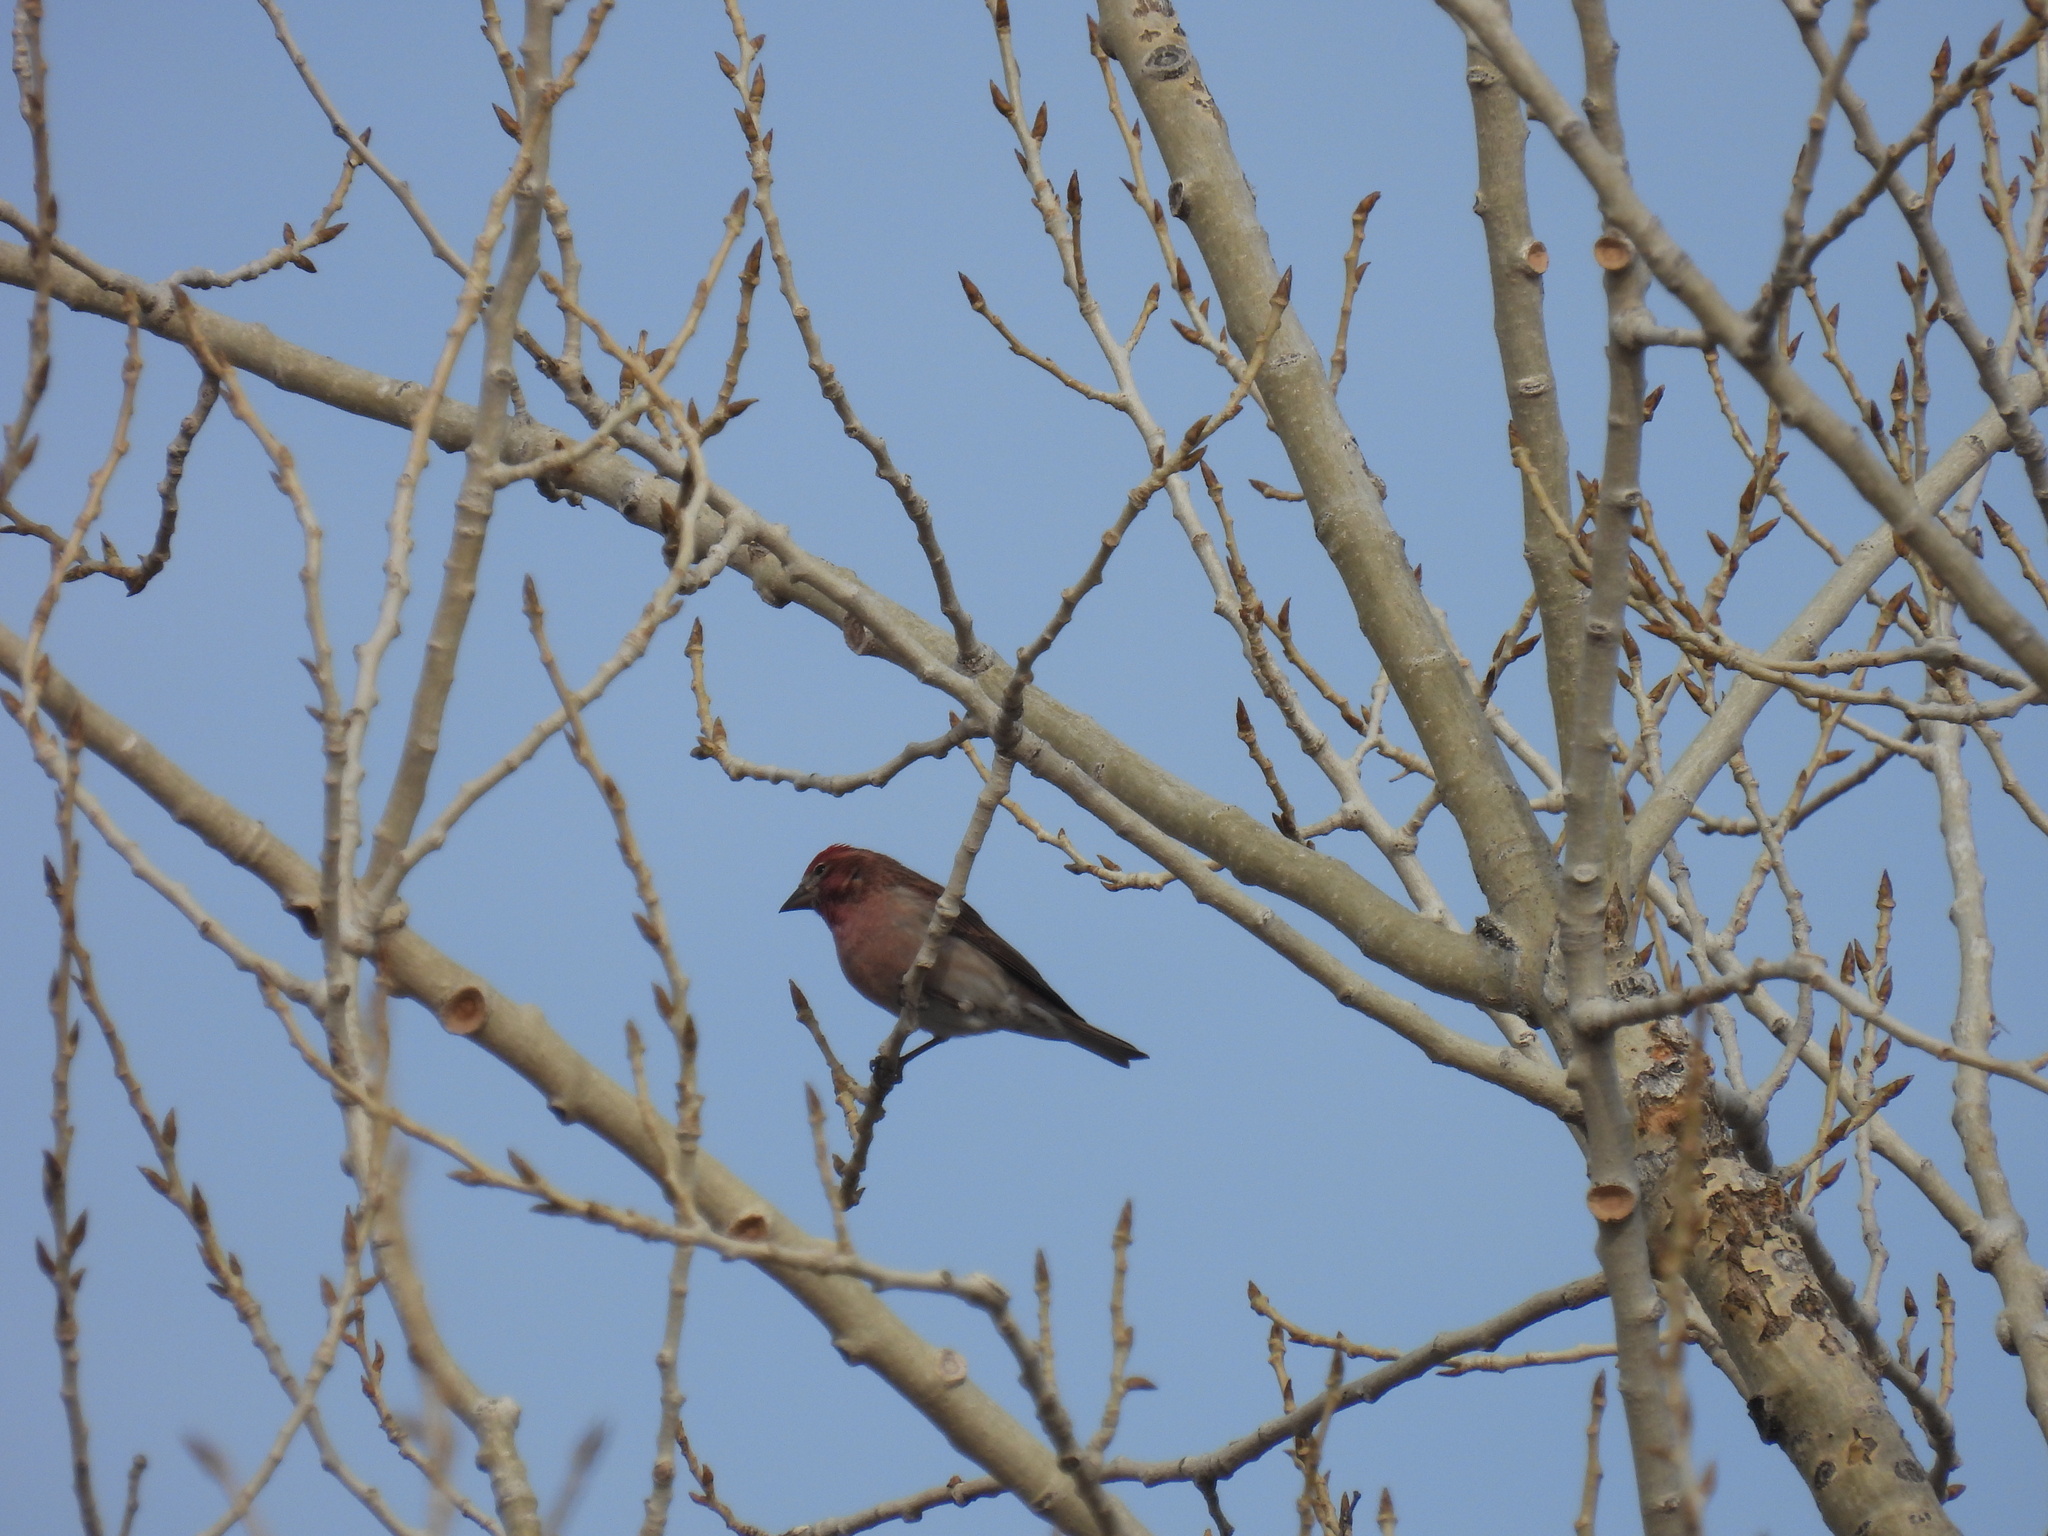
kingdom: Animalia
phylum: Chordata
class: Aves
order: Passeriformes
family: Fringillidae
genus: Haemorhous
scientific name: Haemorhous cassinii
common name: Cassin's finch
